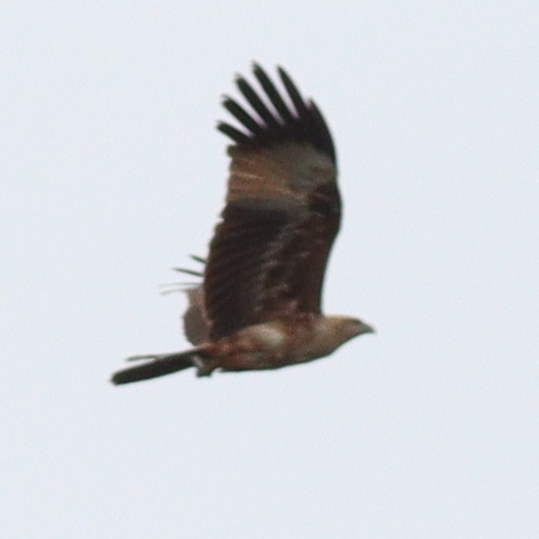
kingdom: Animalia
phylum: Chordata
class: Aves
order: Accipitriformes
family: Accipitridae
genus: Haliastur
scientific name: Haliastur indus
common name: Brahminy kite
